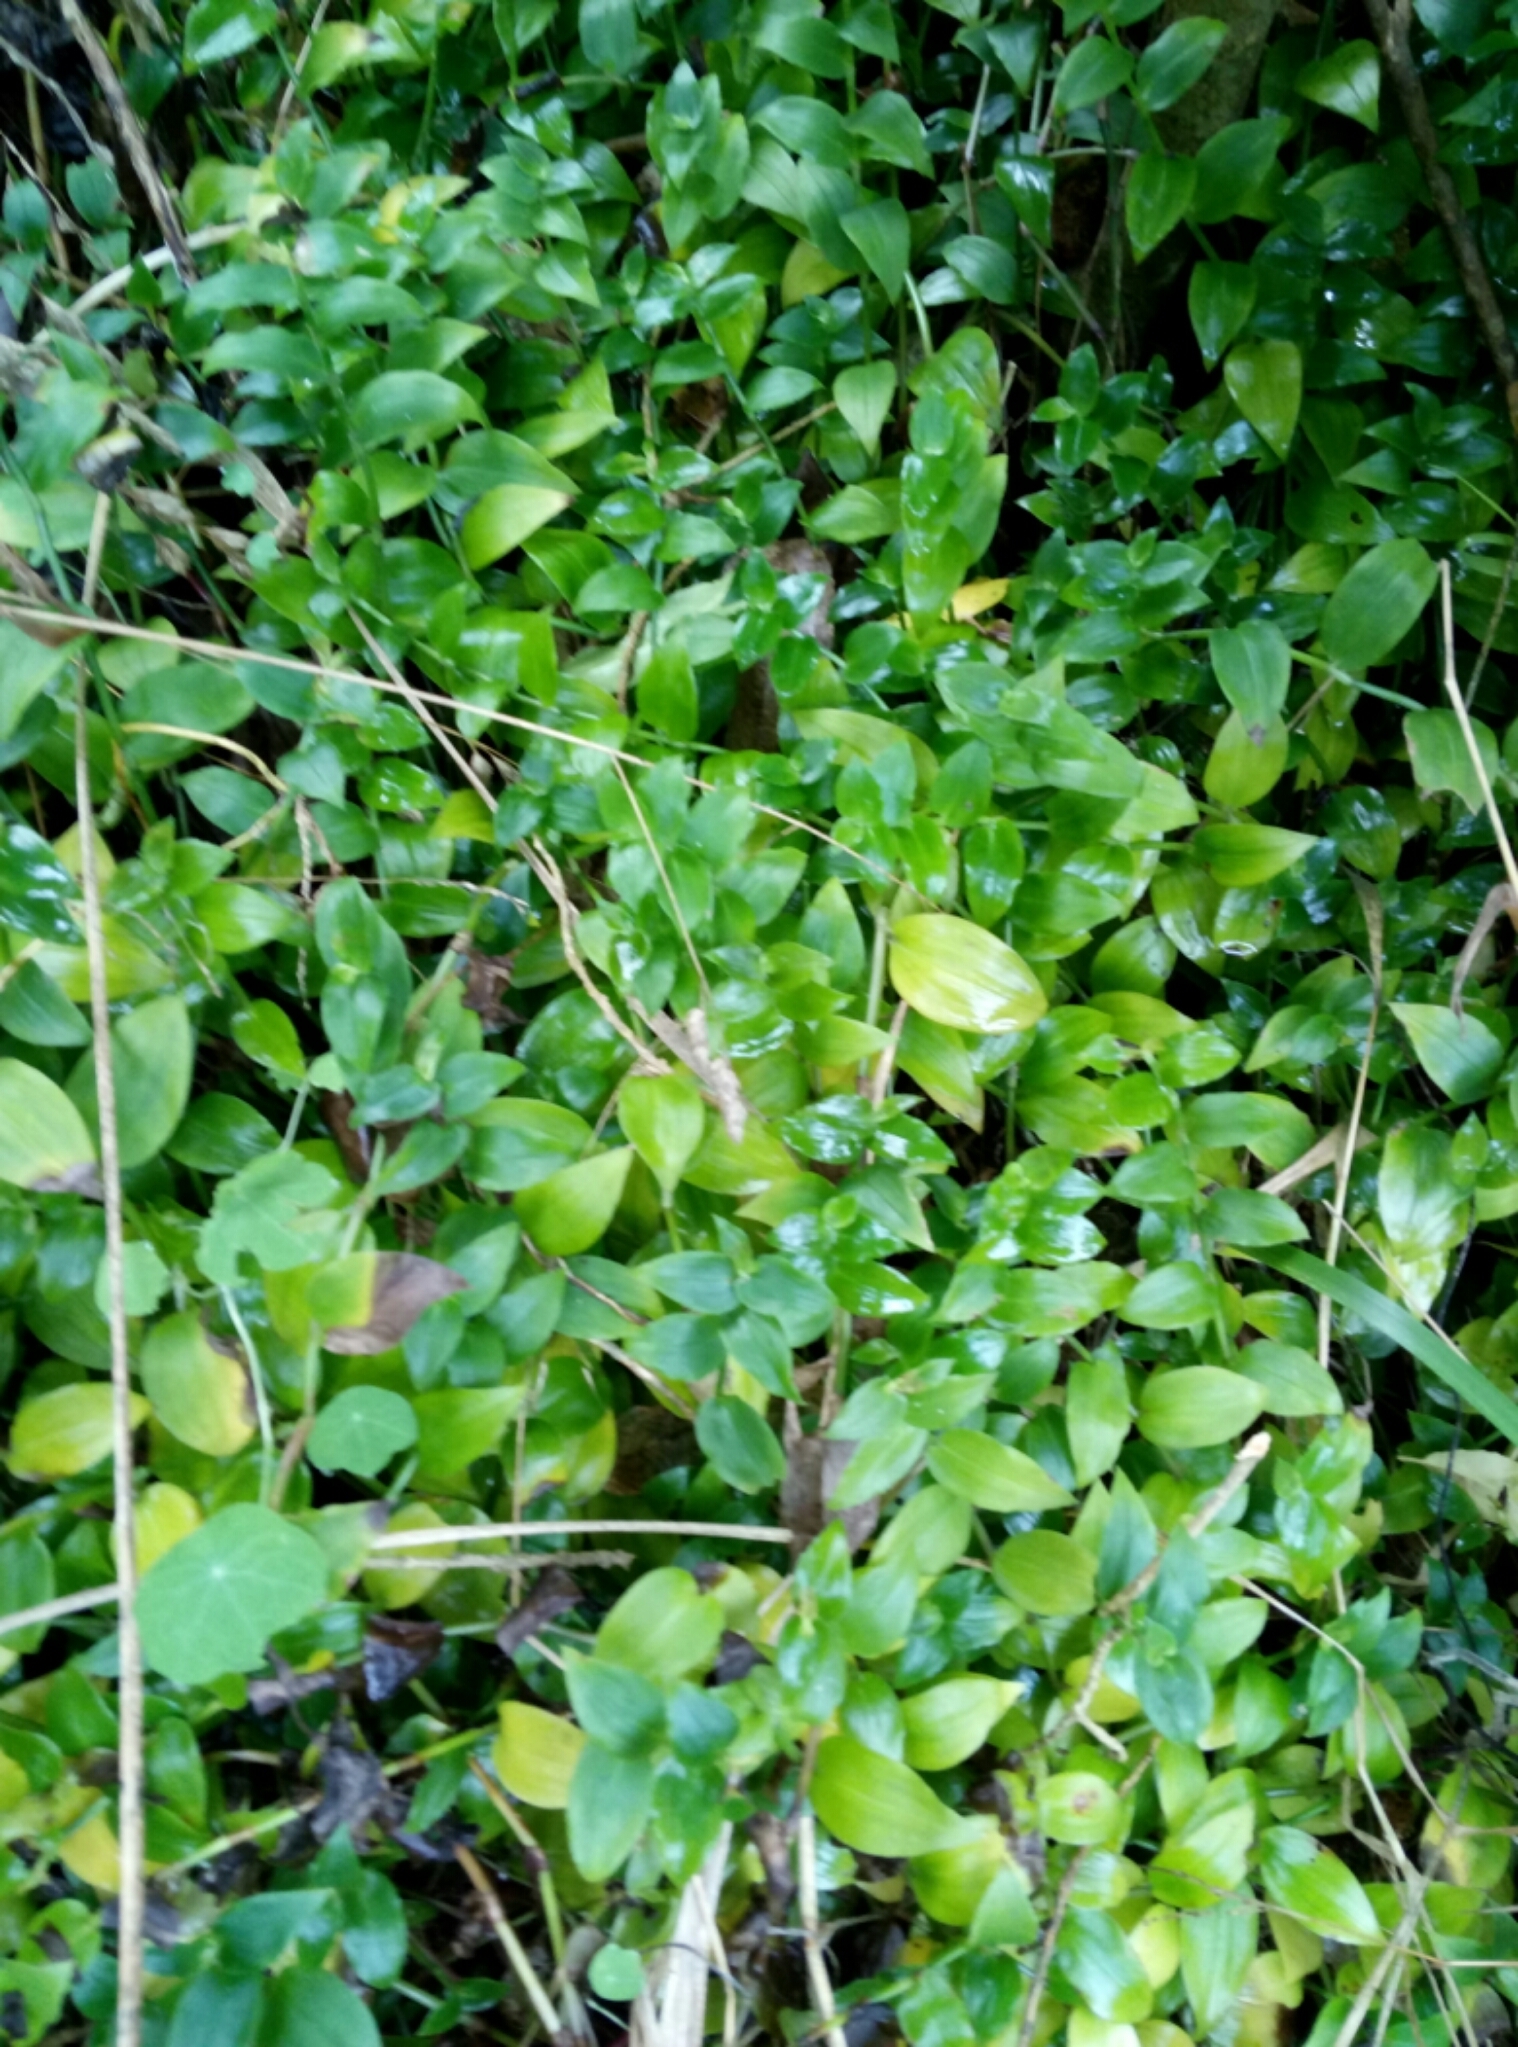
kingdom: Plantae
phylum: Tracheophyta
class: Liliopsida
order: Commelinales
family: Commelinaceae
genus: Tradescantia
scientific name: Tradescantia fluminensis
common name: Wandering-jew
